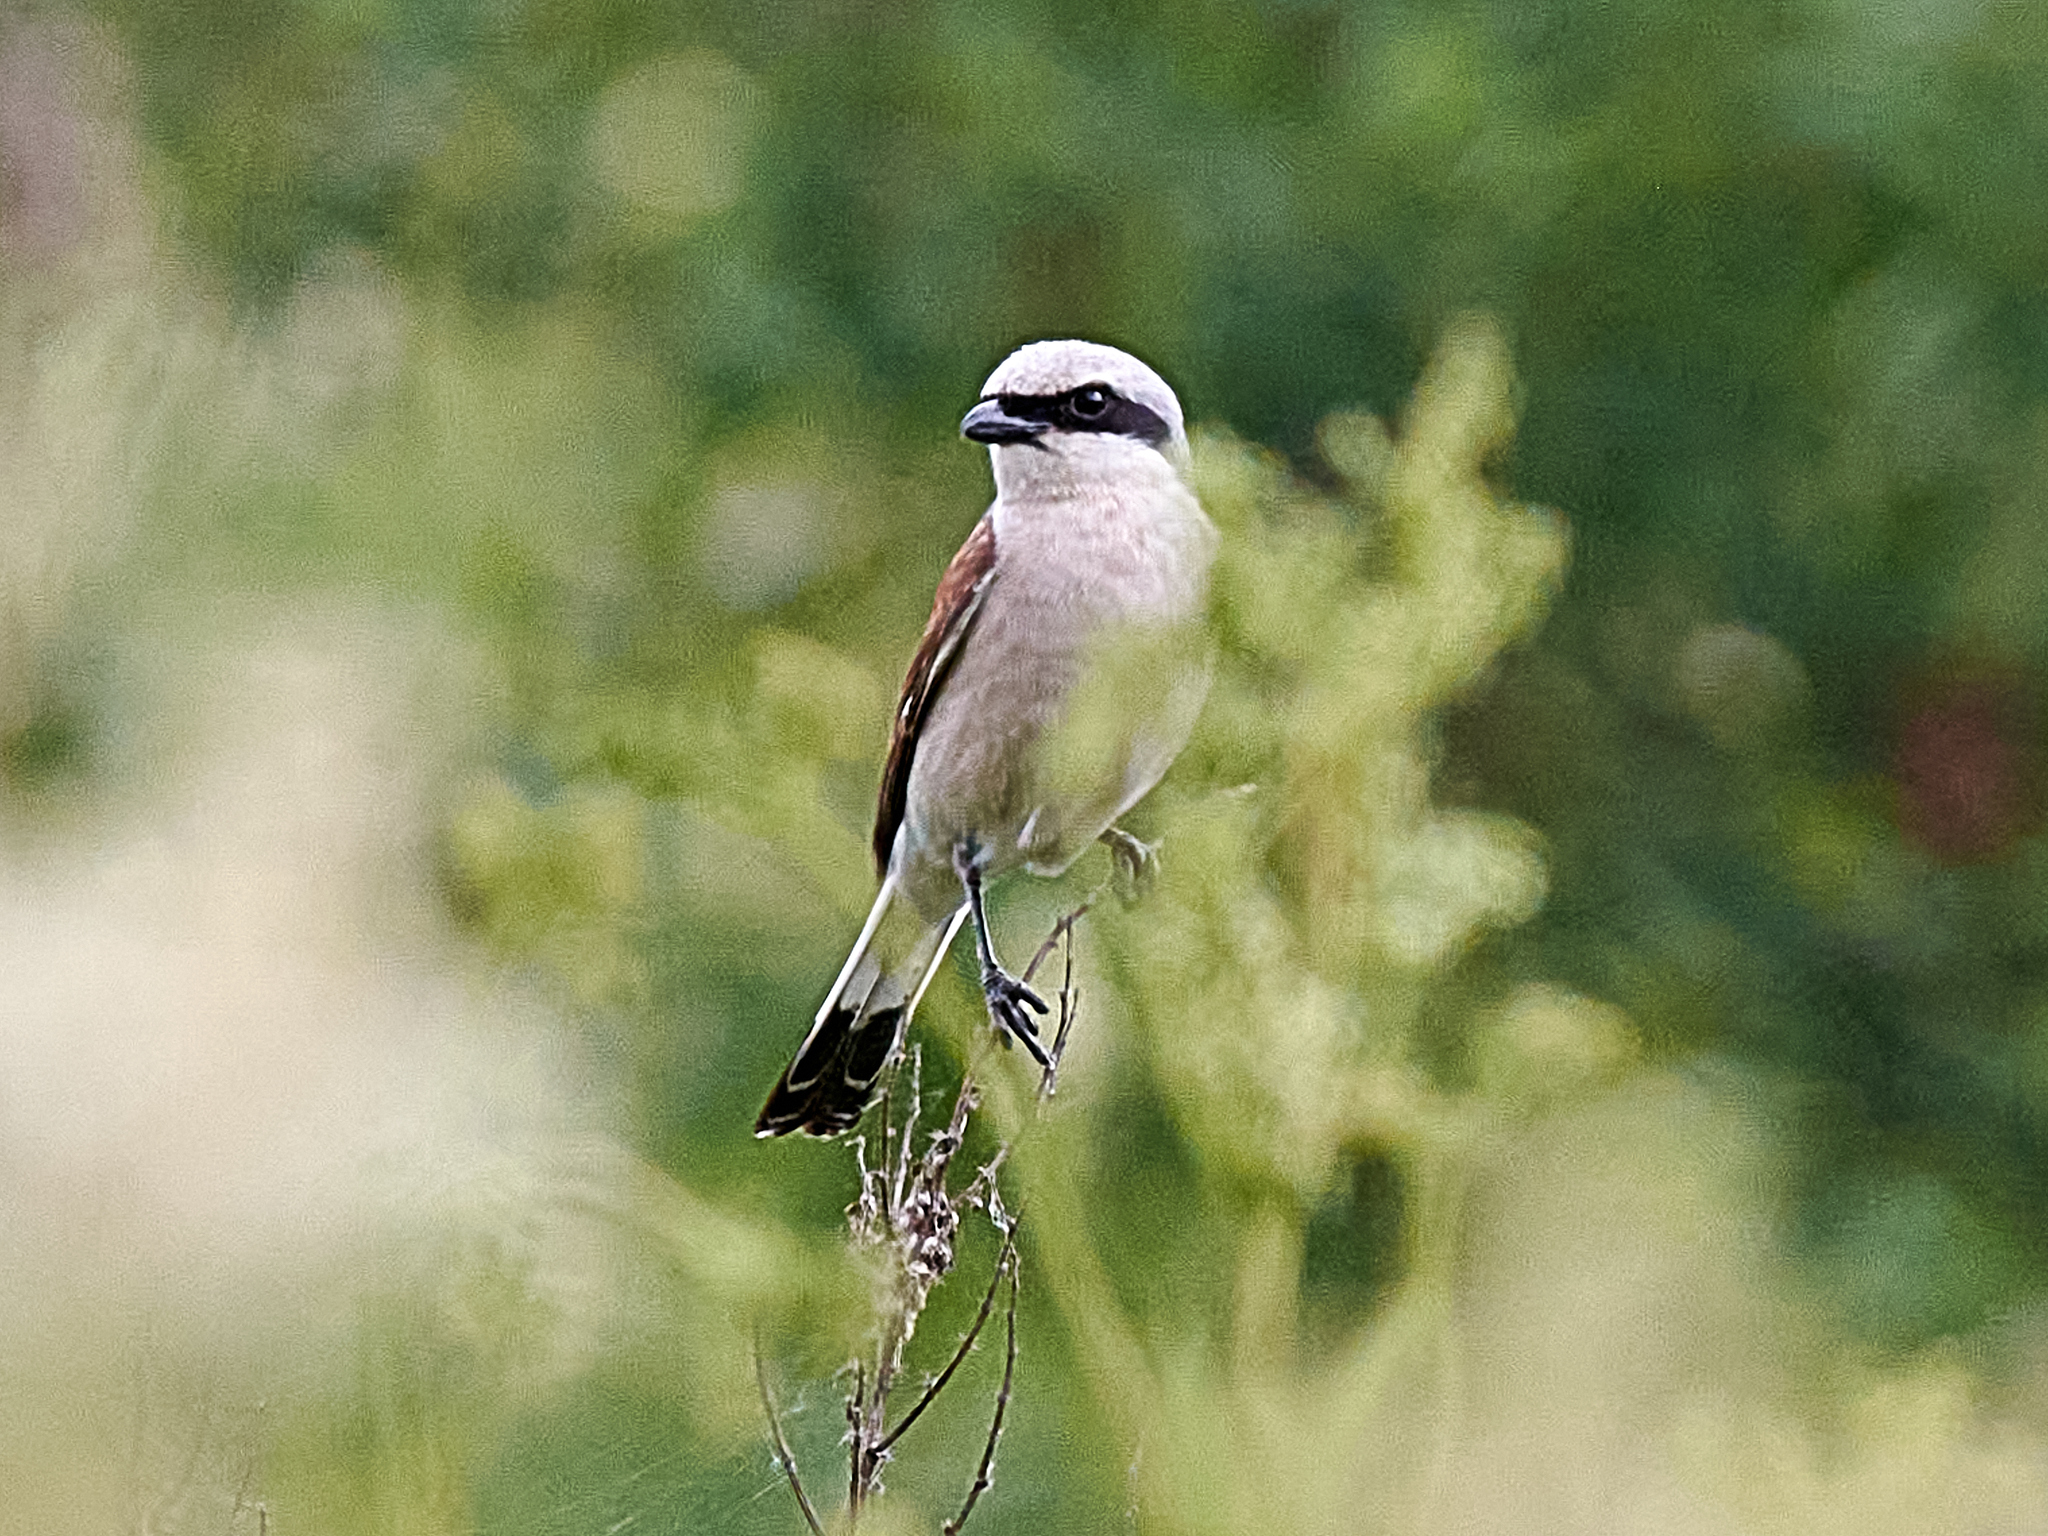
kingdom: Animalia
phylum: Chordata
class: Aves
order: Passeriformes
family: Laniidae
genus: Lanius
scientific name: Lanius collurio
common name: Red-backed shrike
